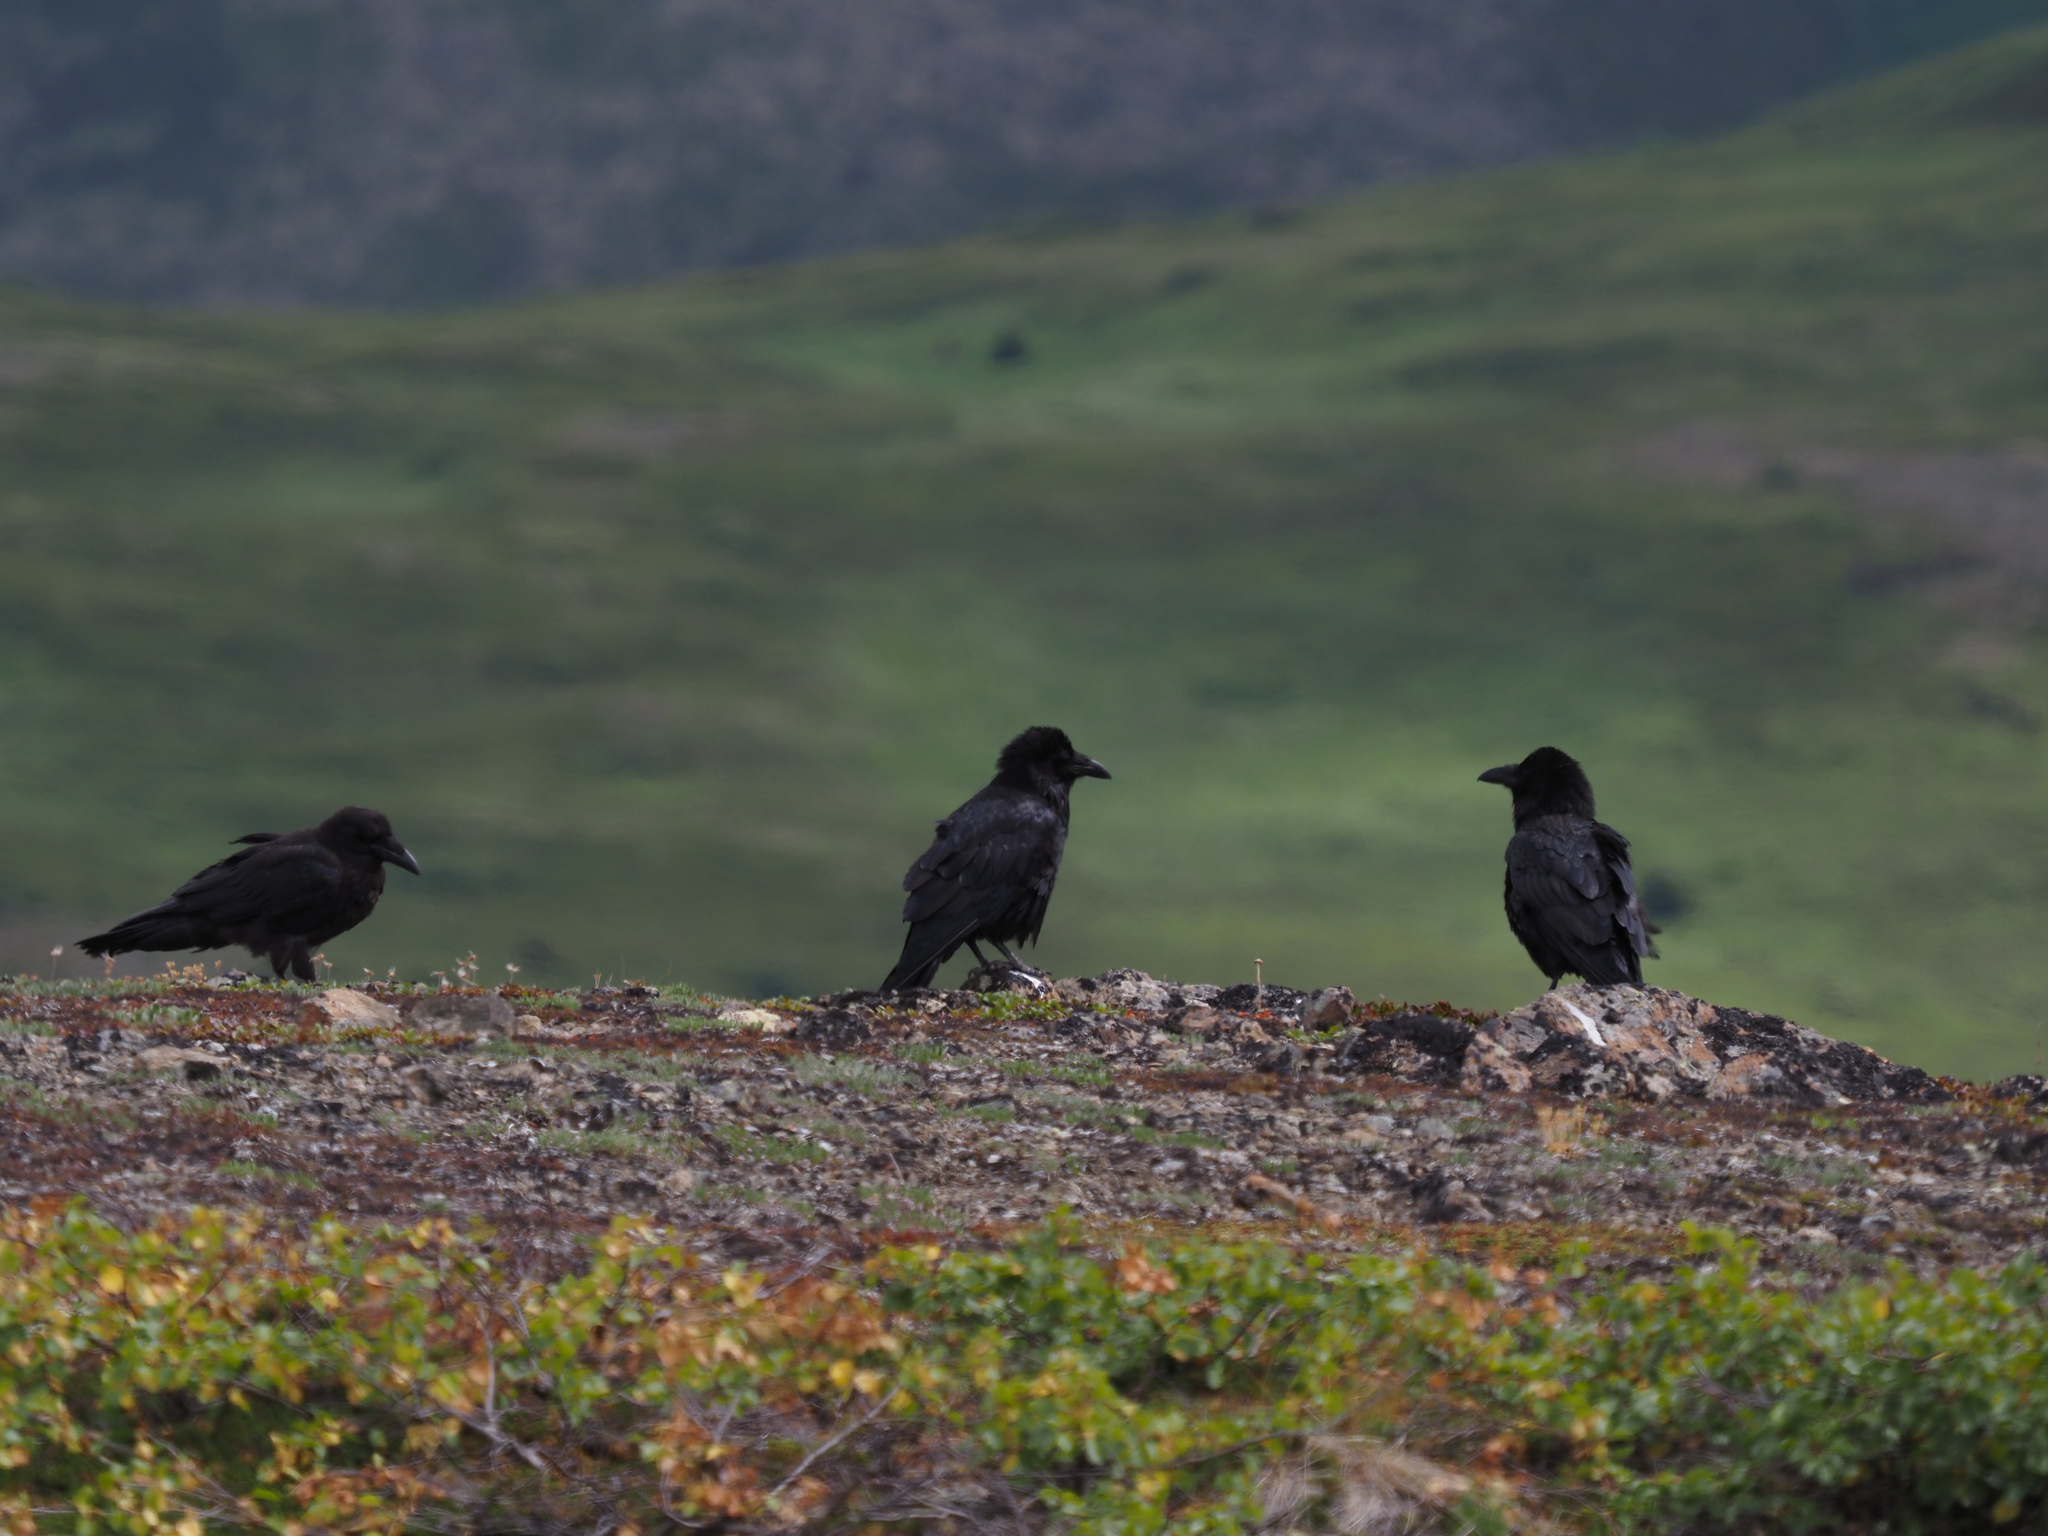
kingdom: Animalia
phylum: Chordata
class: Aves
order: Passeriformes
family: Corvidae
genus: Corvus
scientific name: Corvus corax
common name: Common raven
